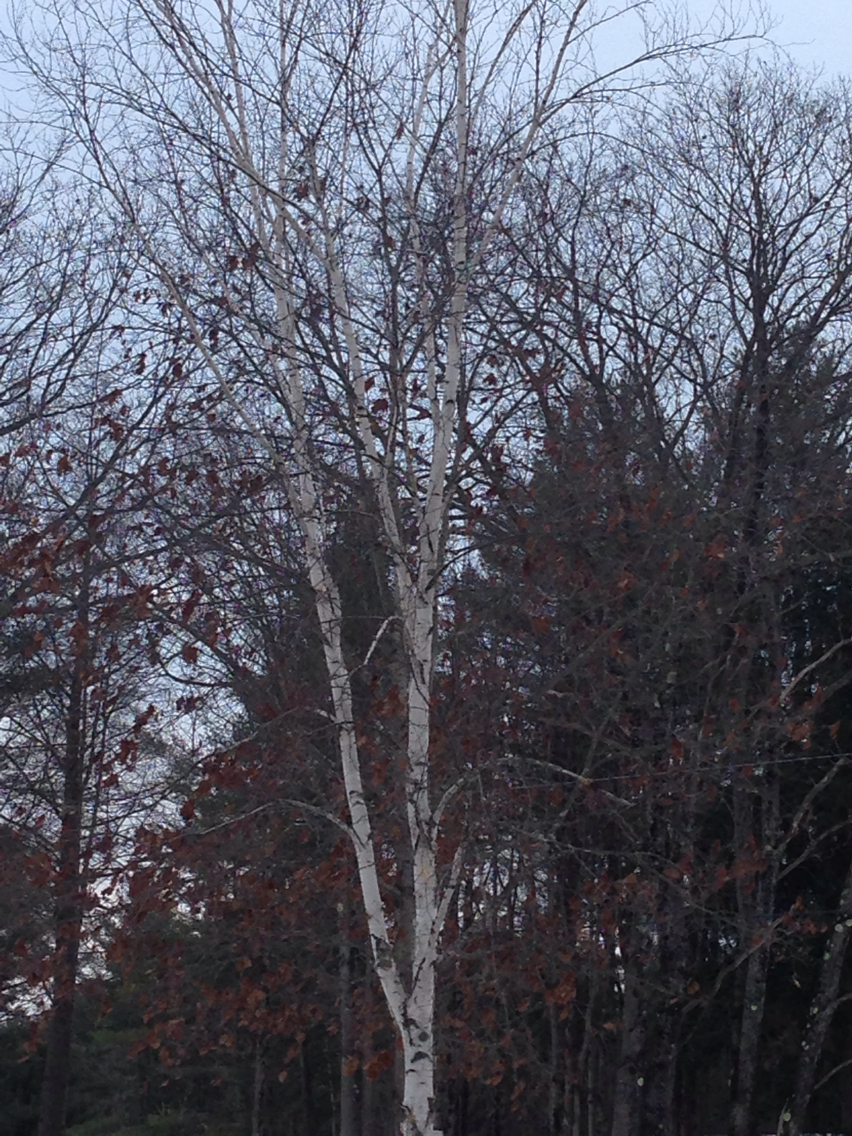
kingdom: Plantae
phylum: Tracheophyta
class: Magnoliopsida
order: Fagales
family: Fagaceae
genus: Quercus
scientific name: Quercus rubra
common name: Red oak
